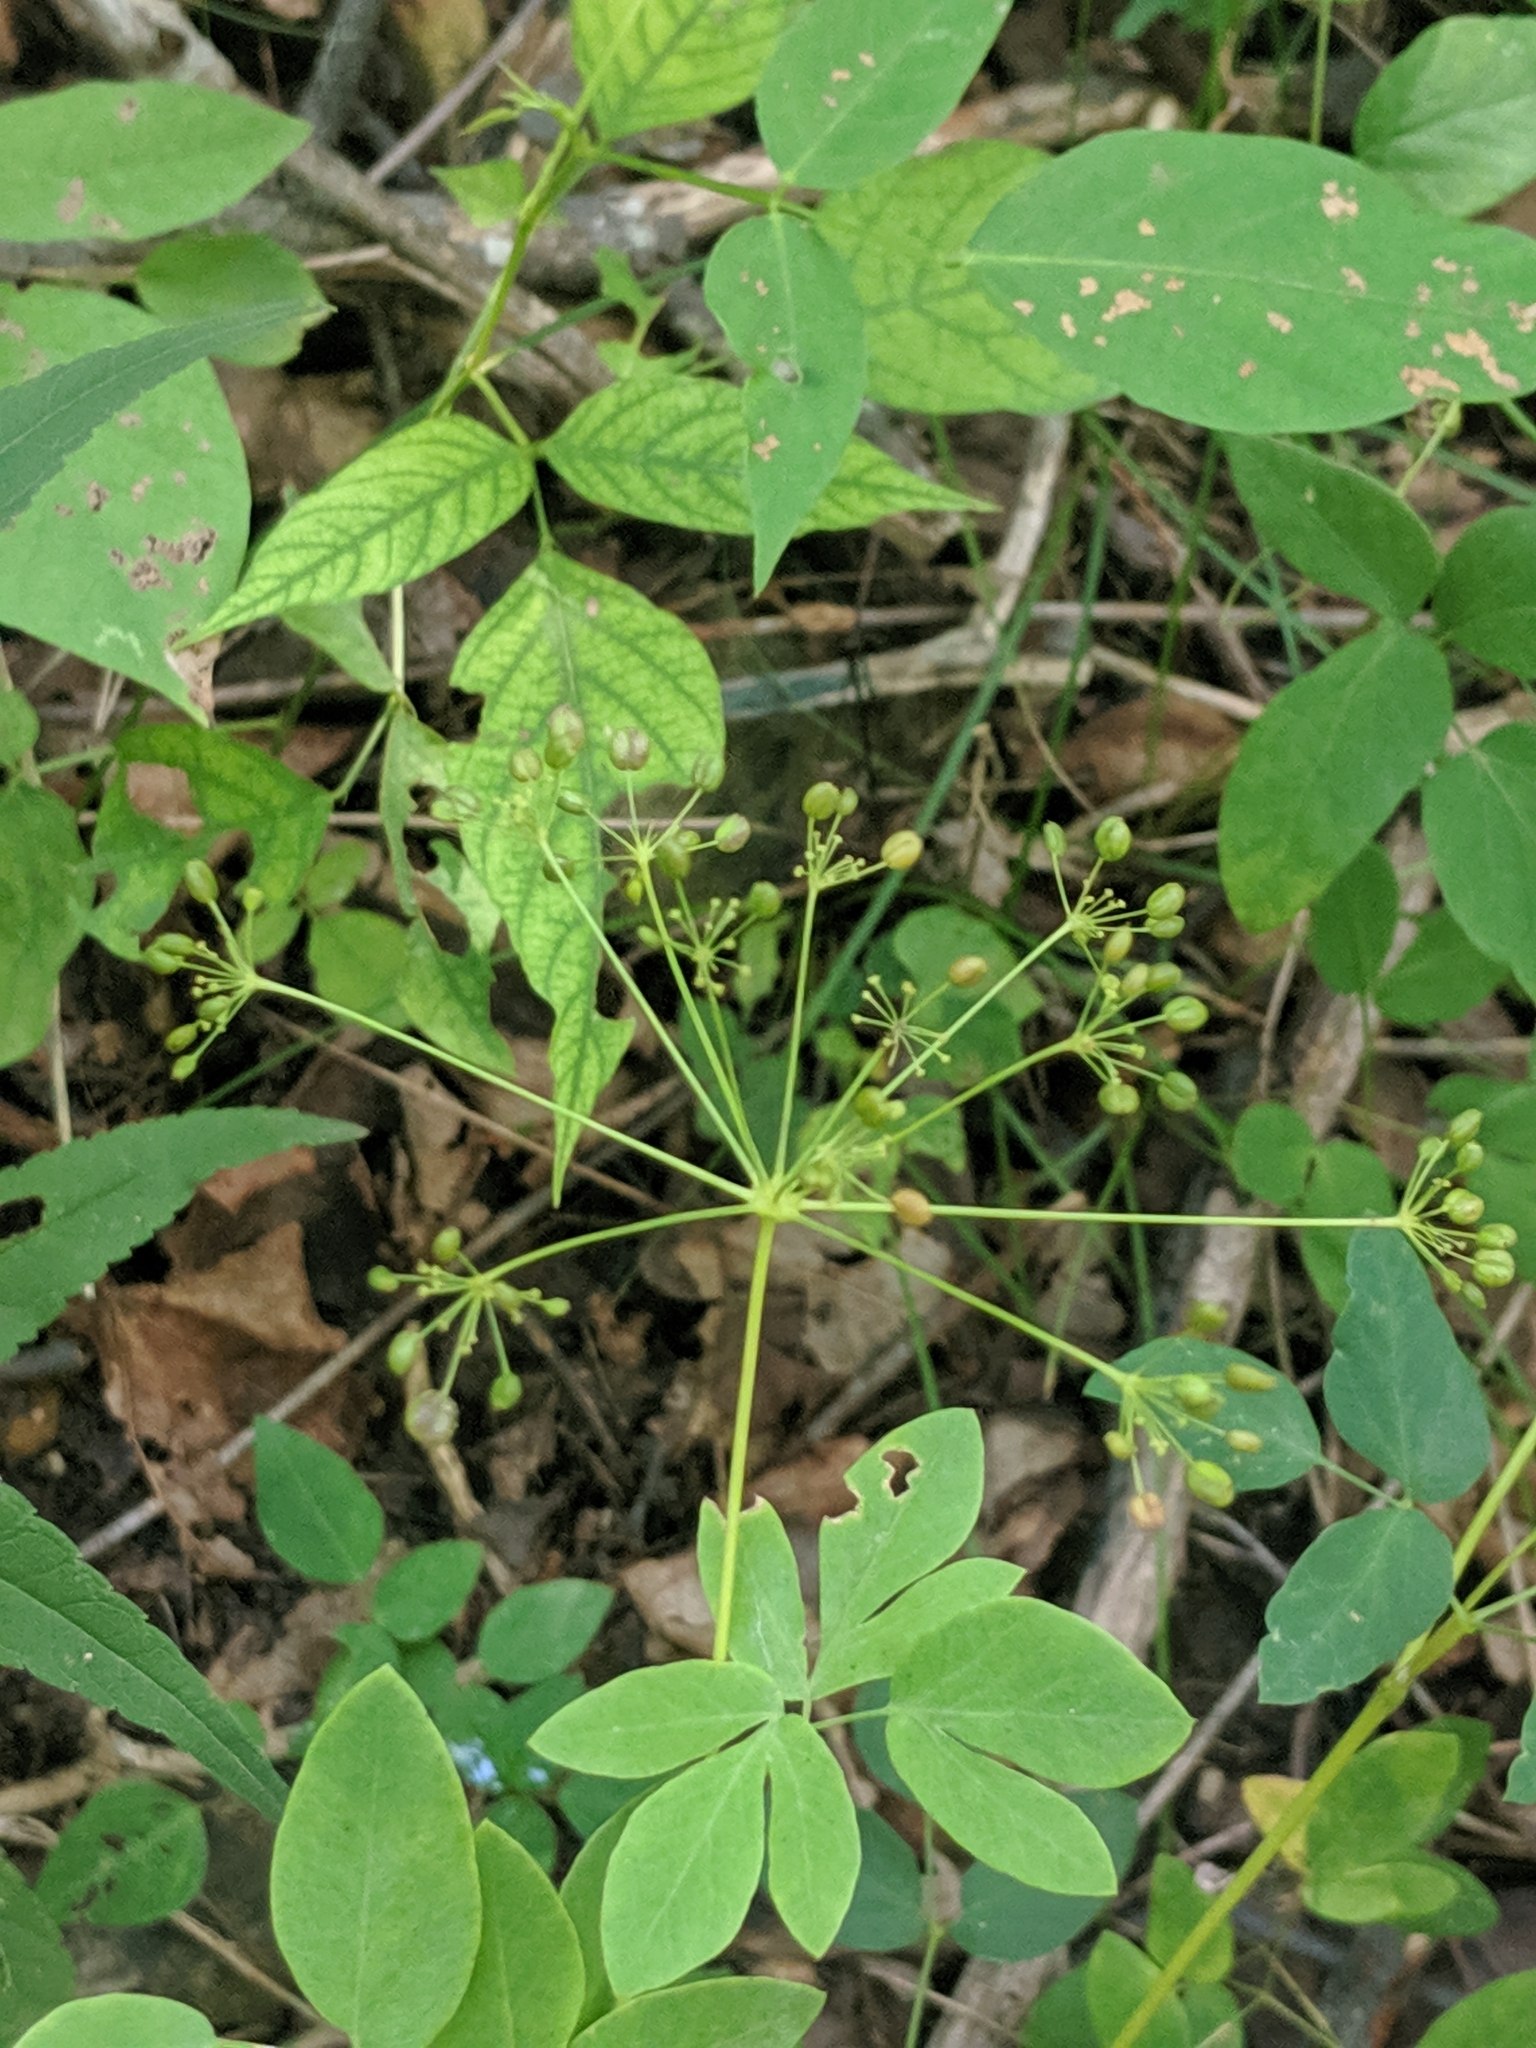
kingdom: Plantae
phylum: Tracheophyta
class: Magnoliopsida
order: Apiales
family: Apiaceae
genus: Taenidia
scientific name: Taenidia integerrima
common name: Golden alexander
